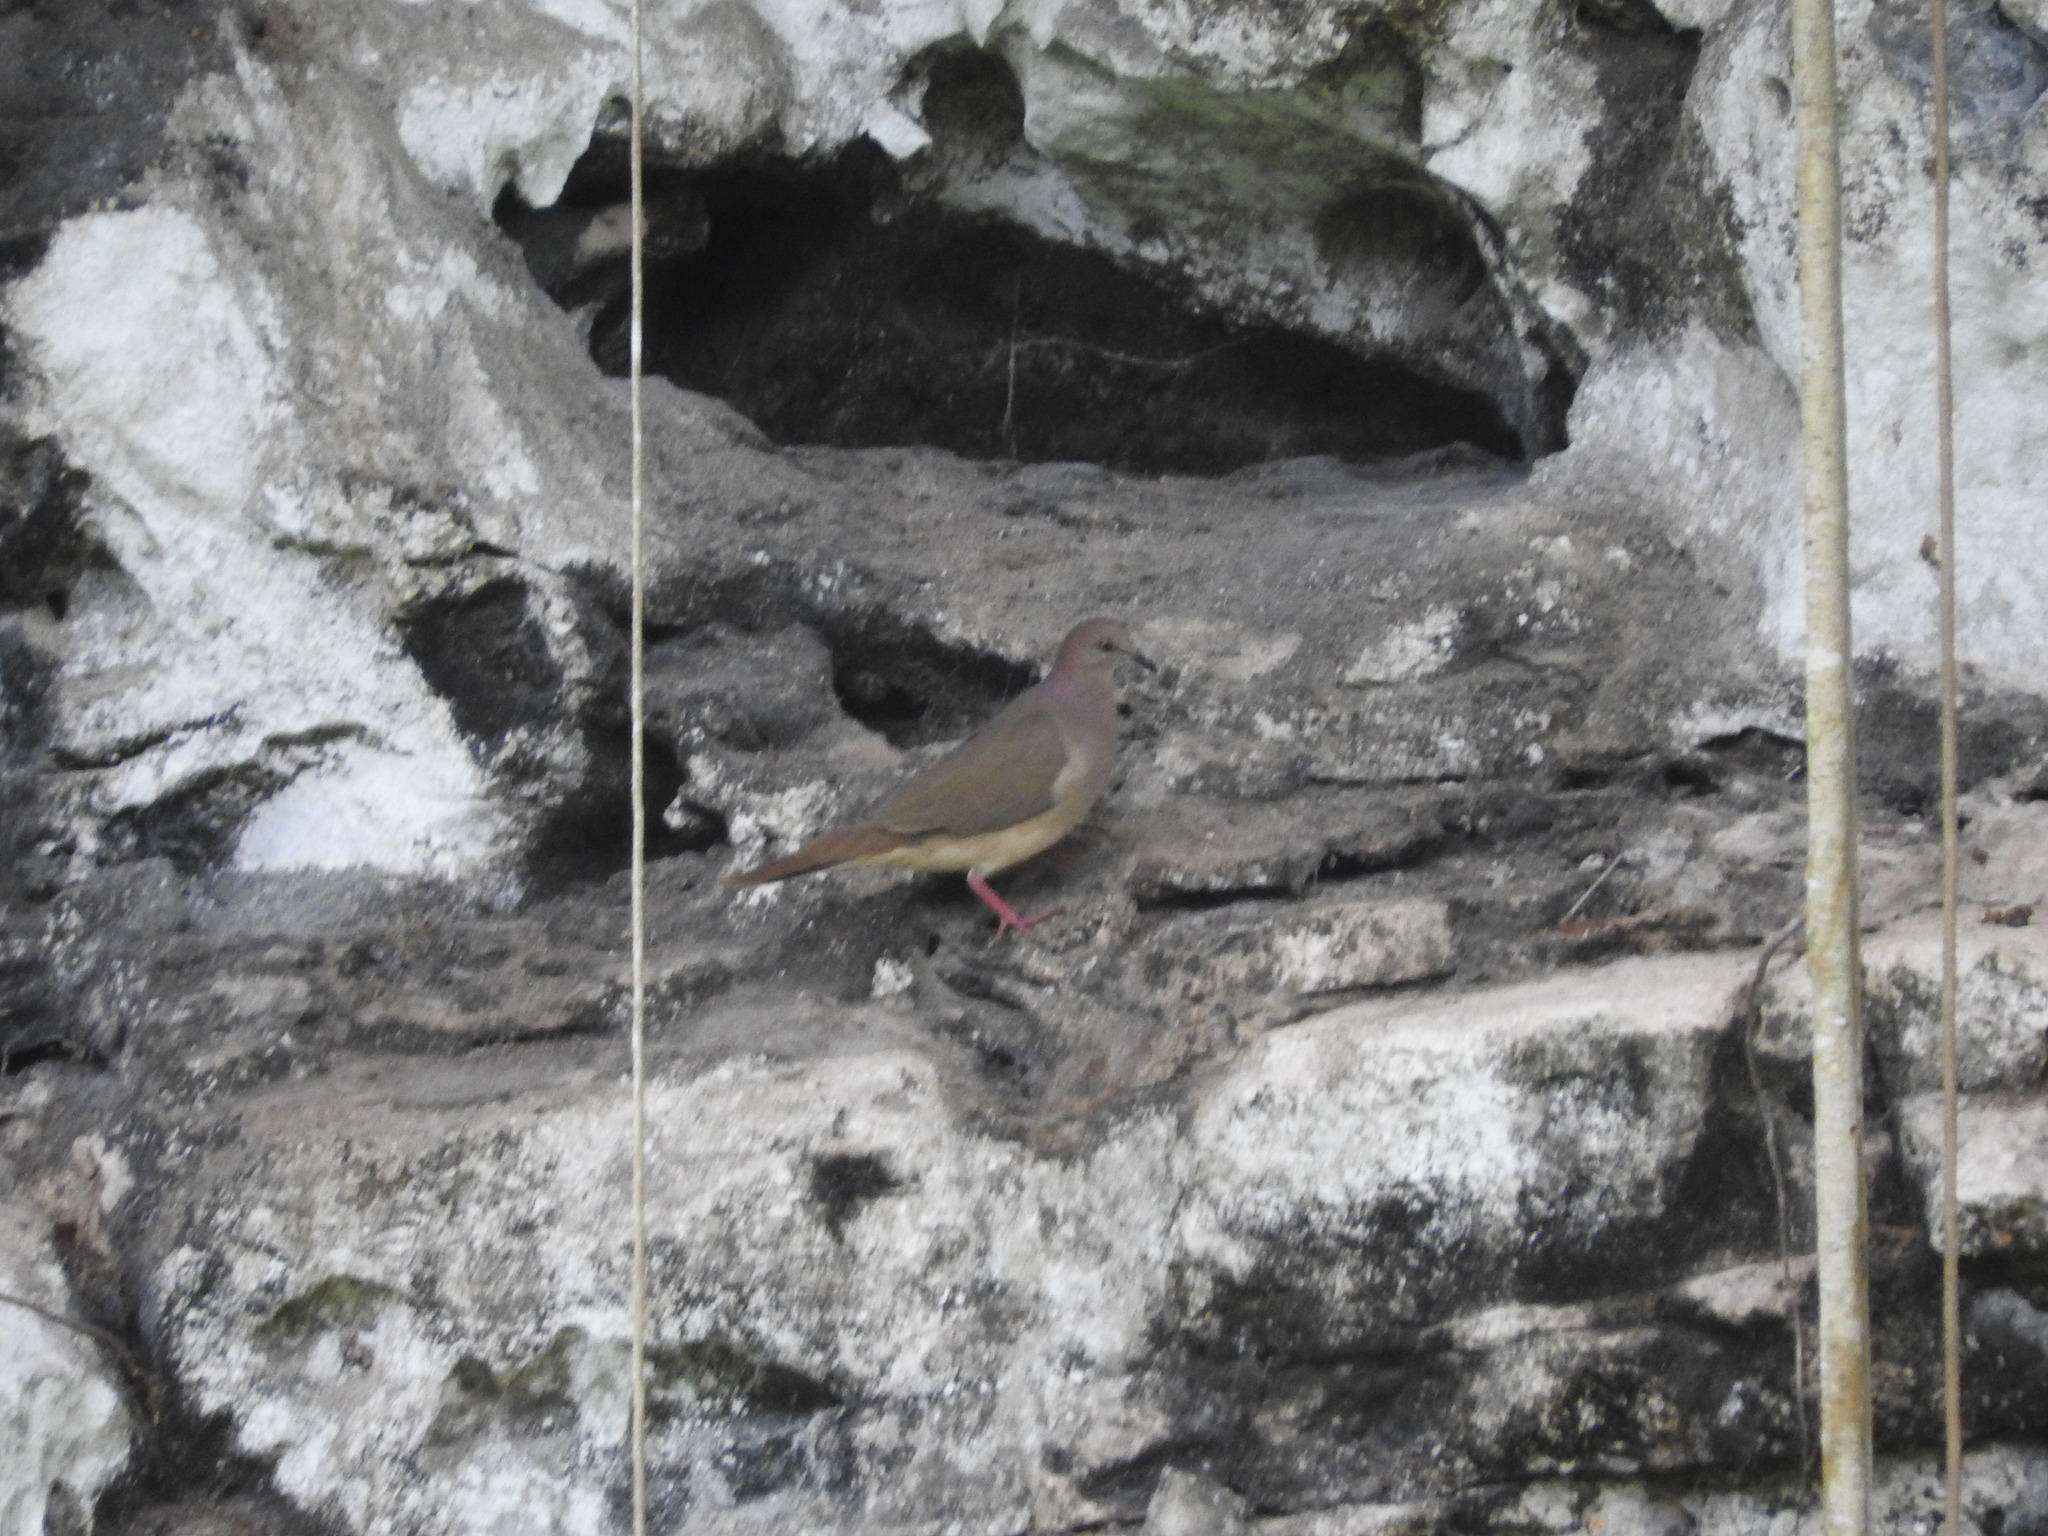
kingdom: Animalia
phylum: Chordata
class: Aves
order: Columbiformes
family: Columbidae
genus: Leptotila
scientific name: Leptotila verreauxi
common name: White-tipped dove
